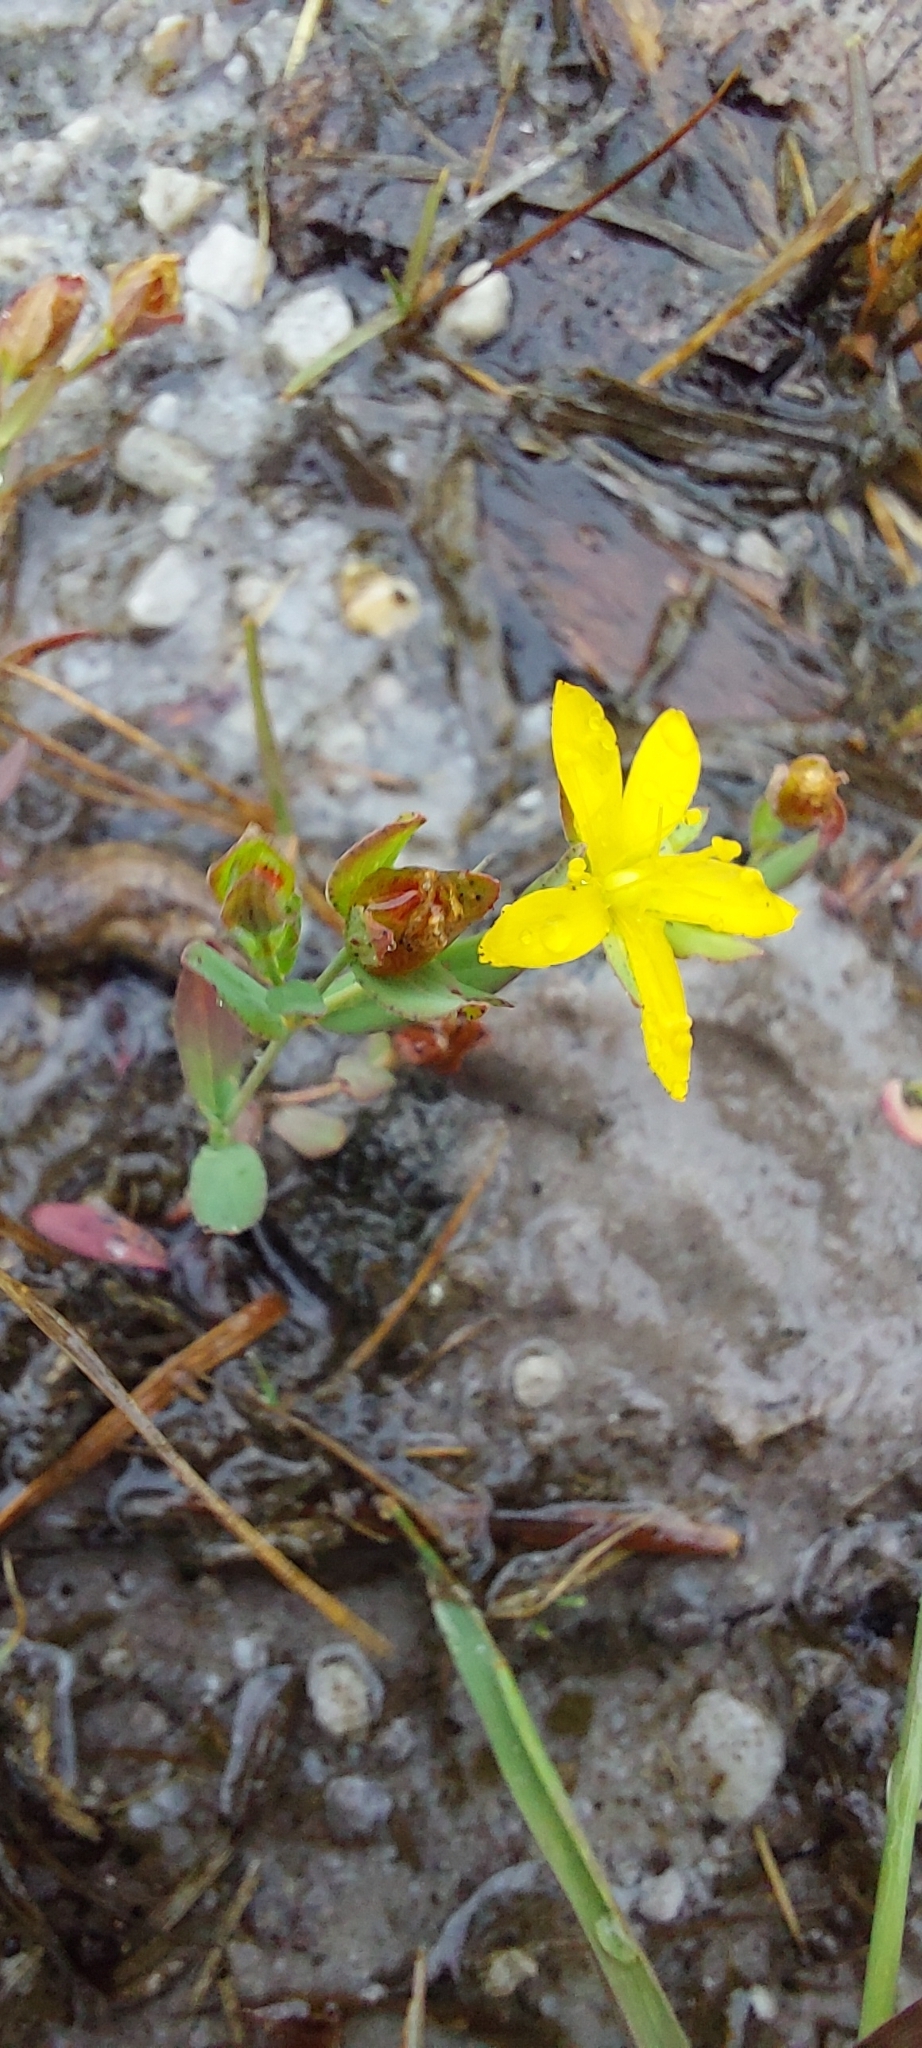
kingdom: Plantae
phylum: Tracheophyta
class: Magnoliopsida
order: Malpighiales
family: Hypericaceae
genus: Hypericum
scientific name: Hypericum humifusum
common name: Trailing st. john's-wort
